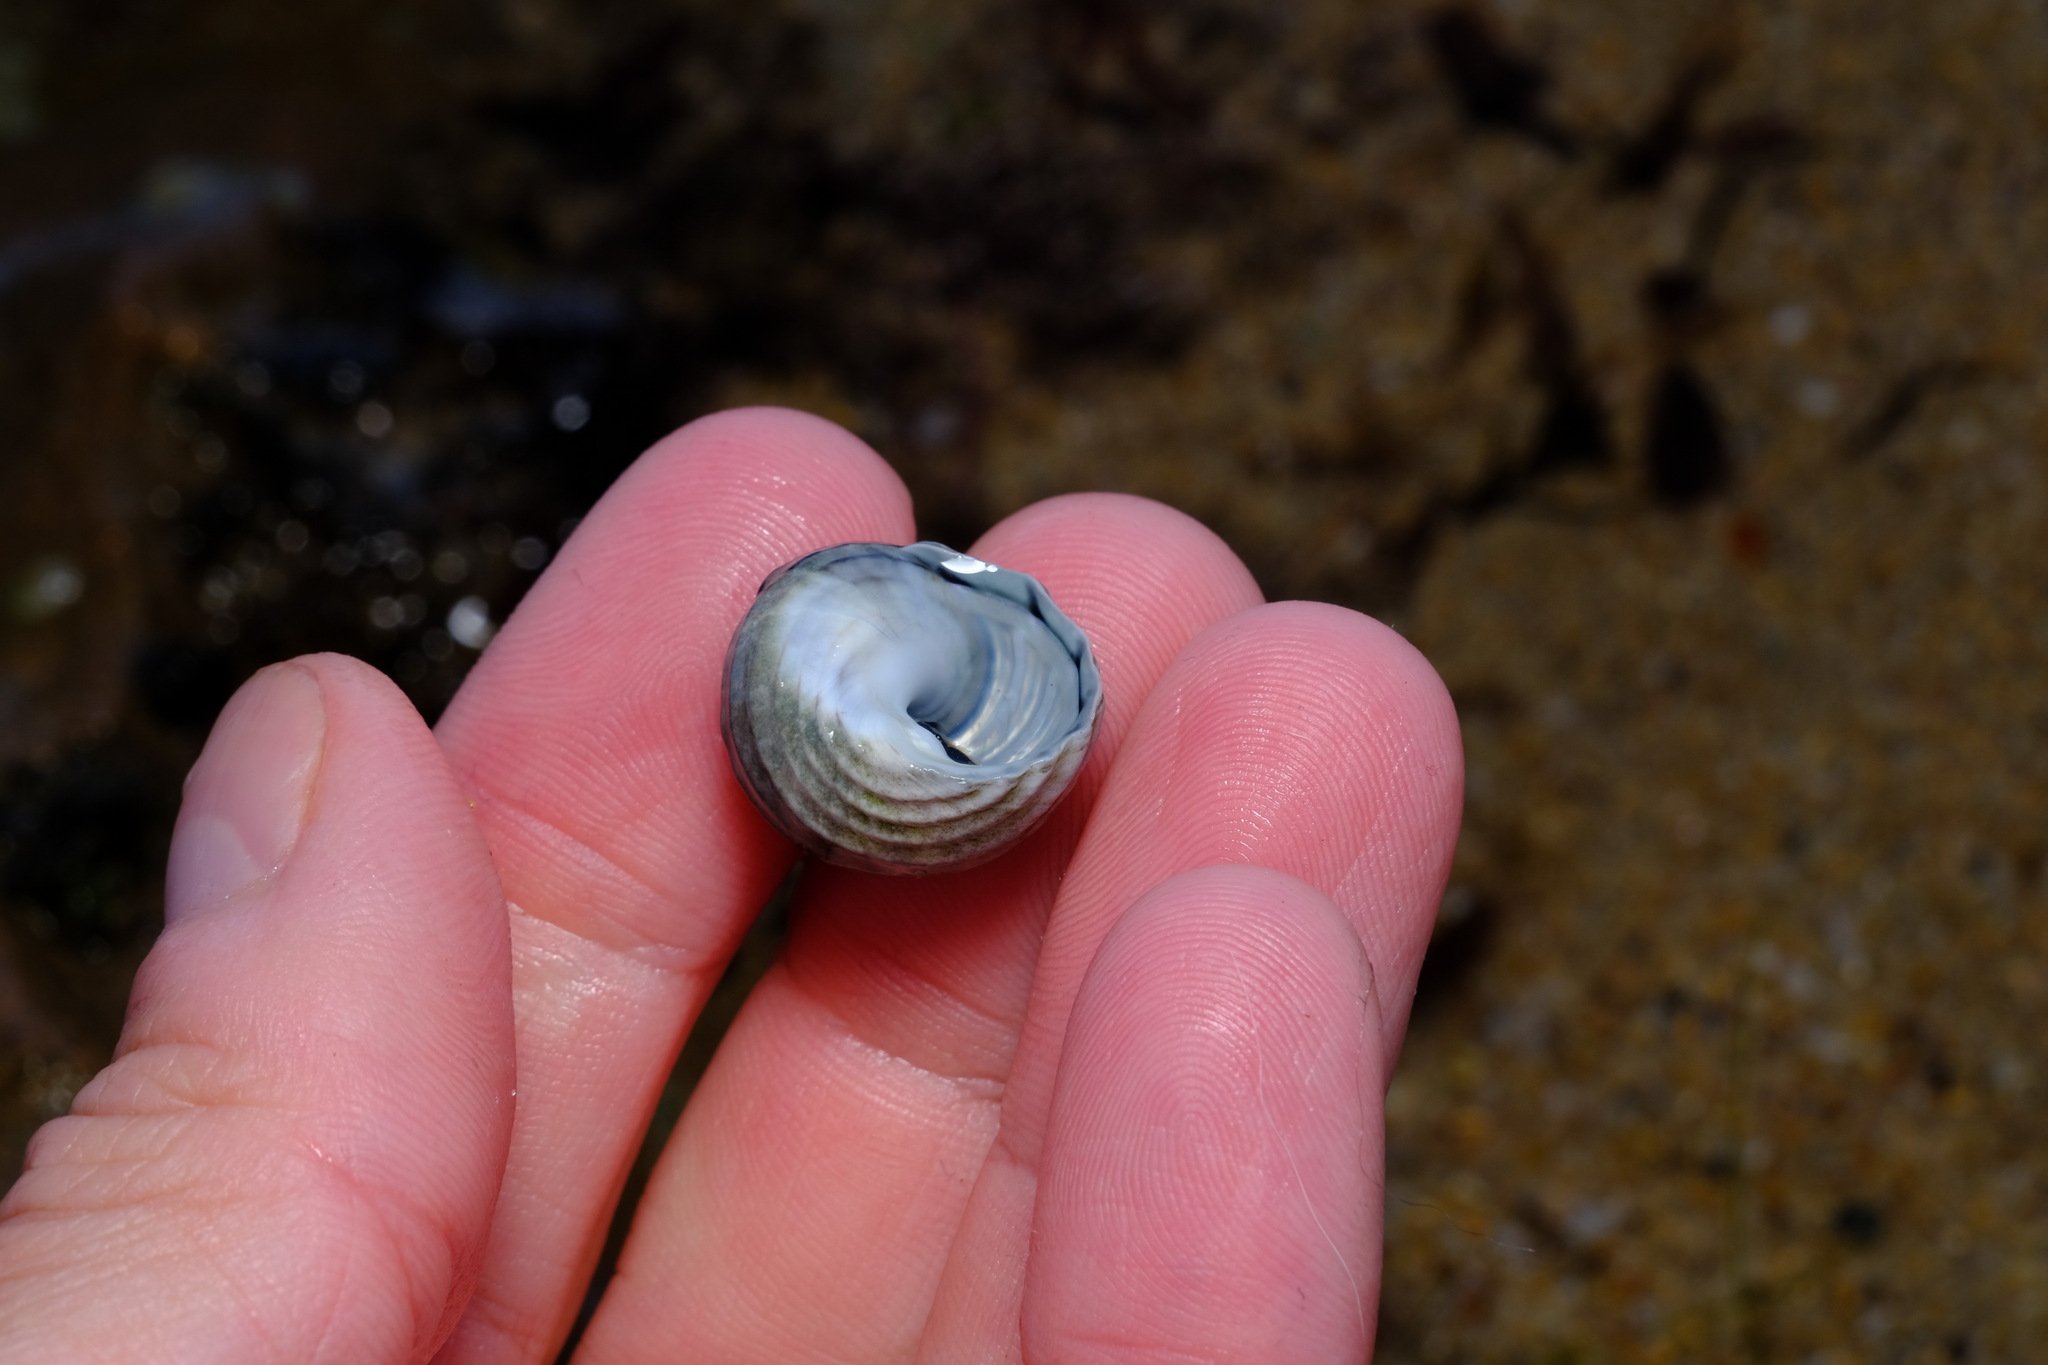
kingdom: Animalia
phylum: Mollusca
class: Gastropoda
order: Trochida
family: Trochidae
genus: Austrocochlea
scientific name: Austrocochlea constricta
